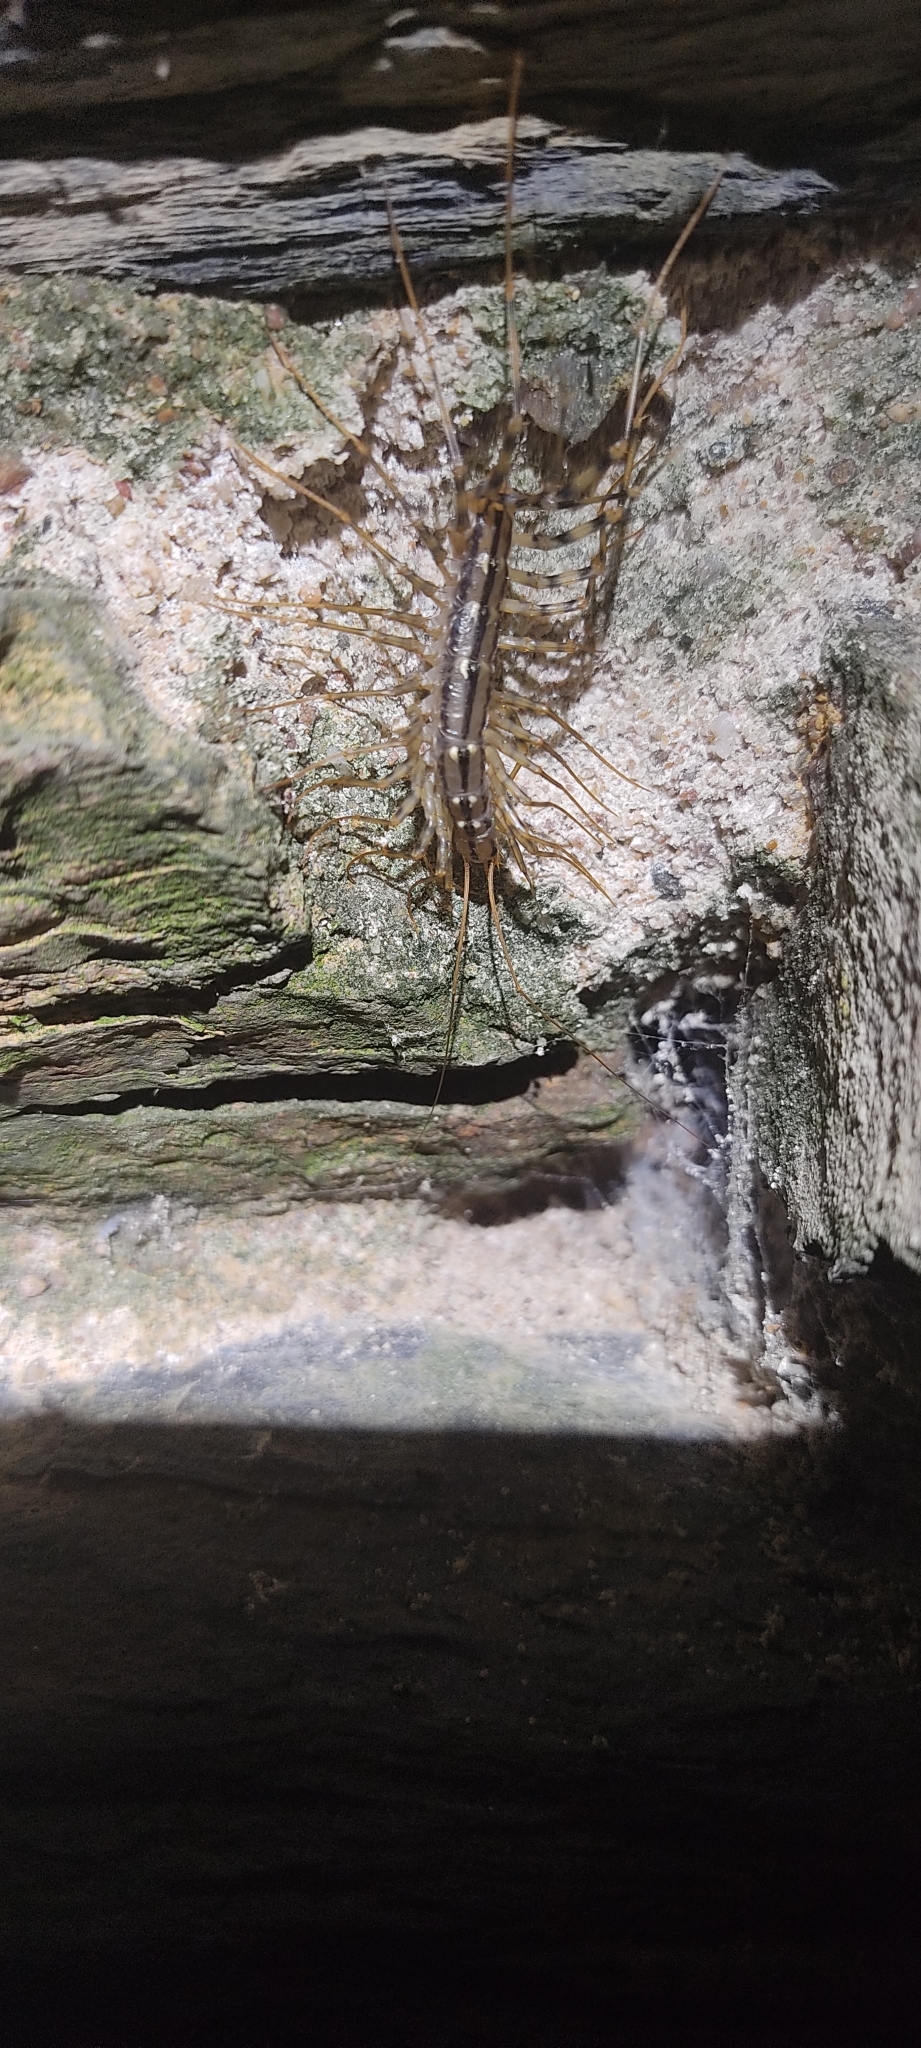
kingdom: Animalia
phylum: Arthropoda
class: Chilopoda
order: Scutigeromorpha
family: Scutigeridae
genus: Scutigera
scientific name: Scutigera coleoptrata
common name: House centipede
